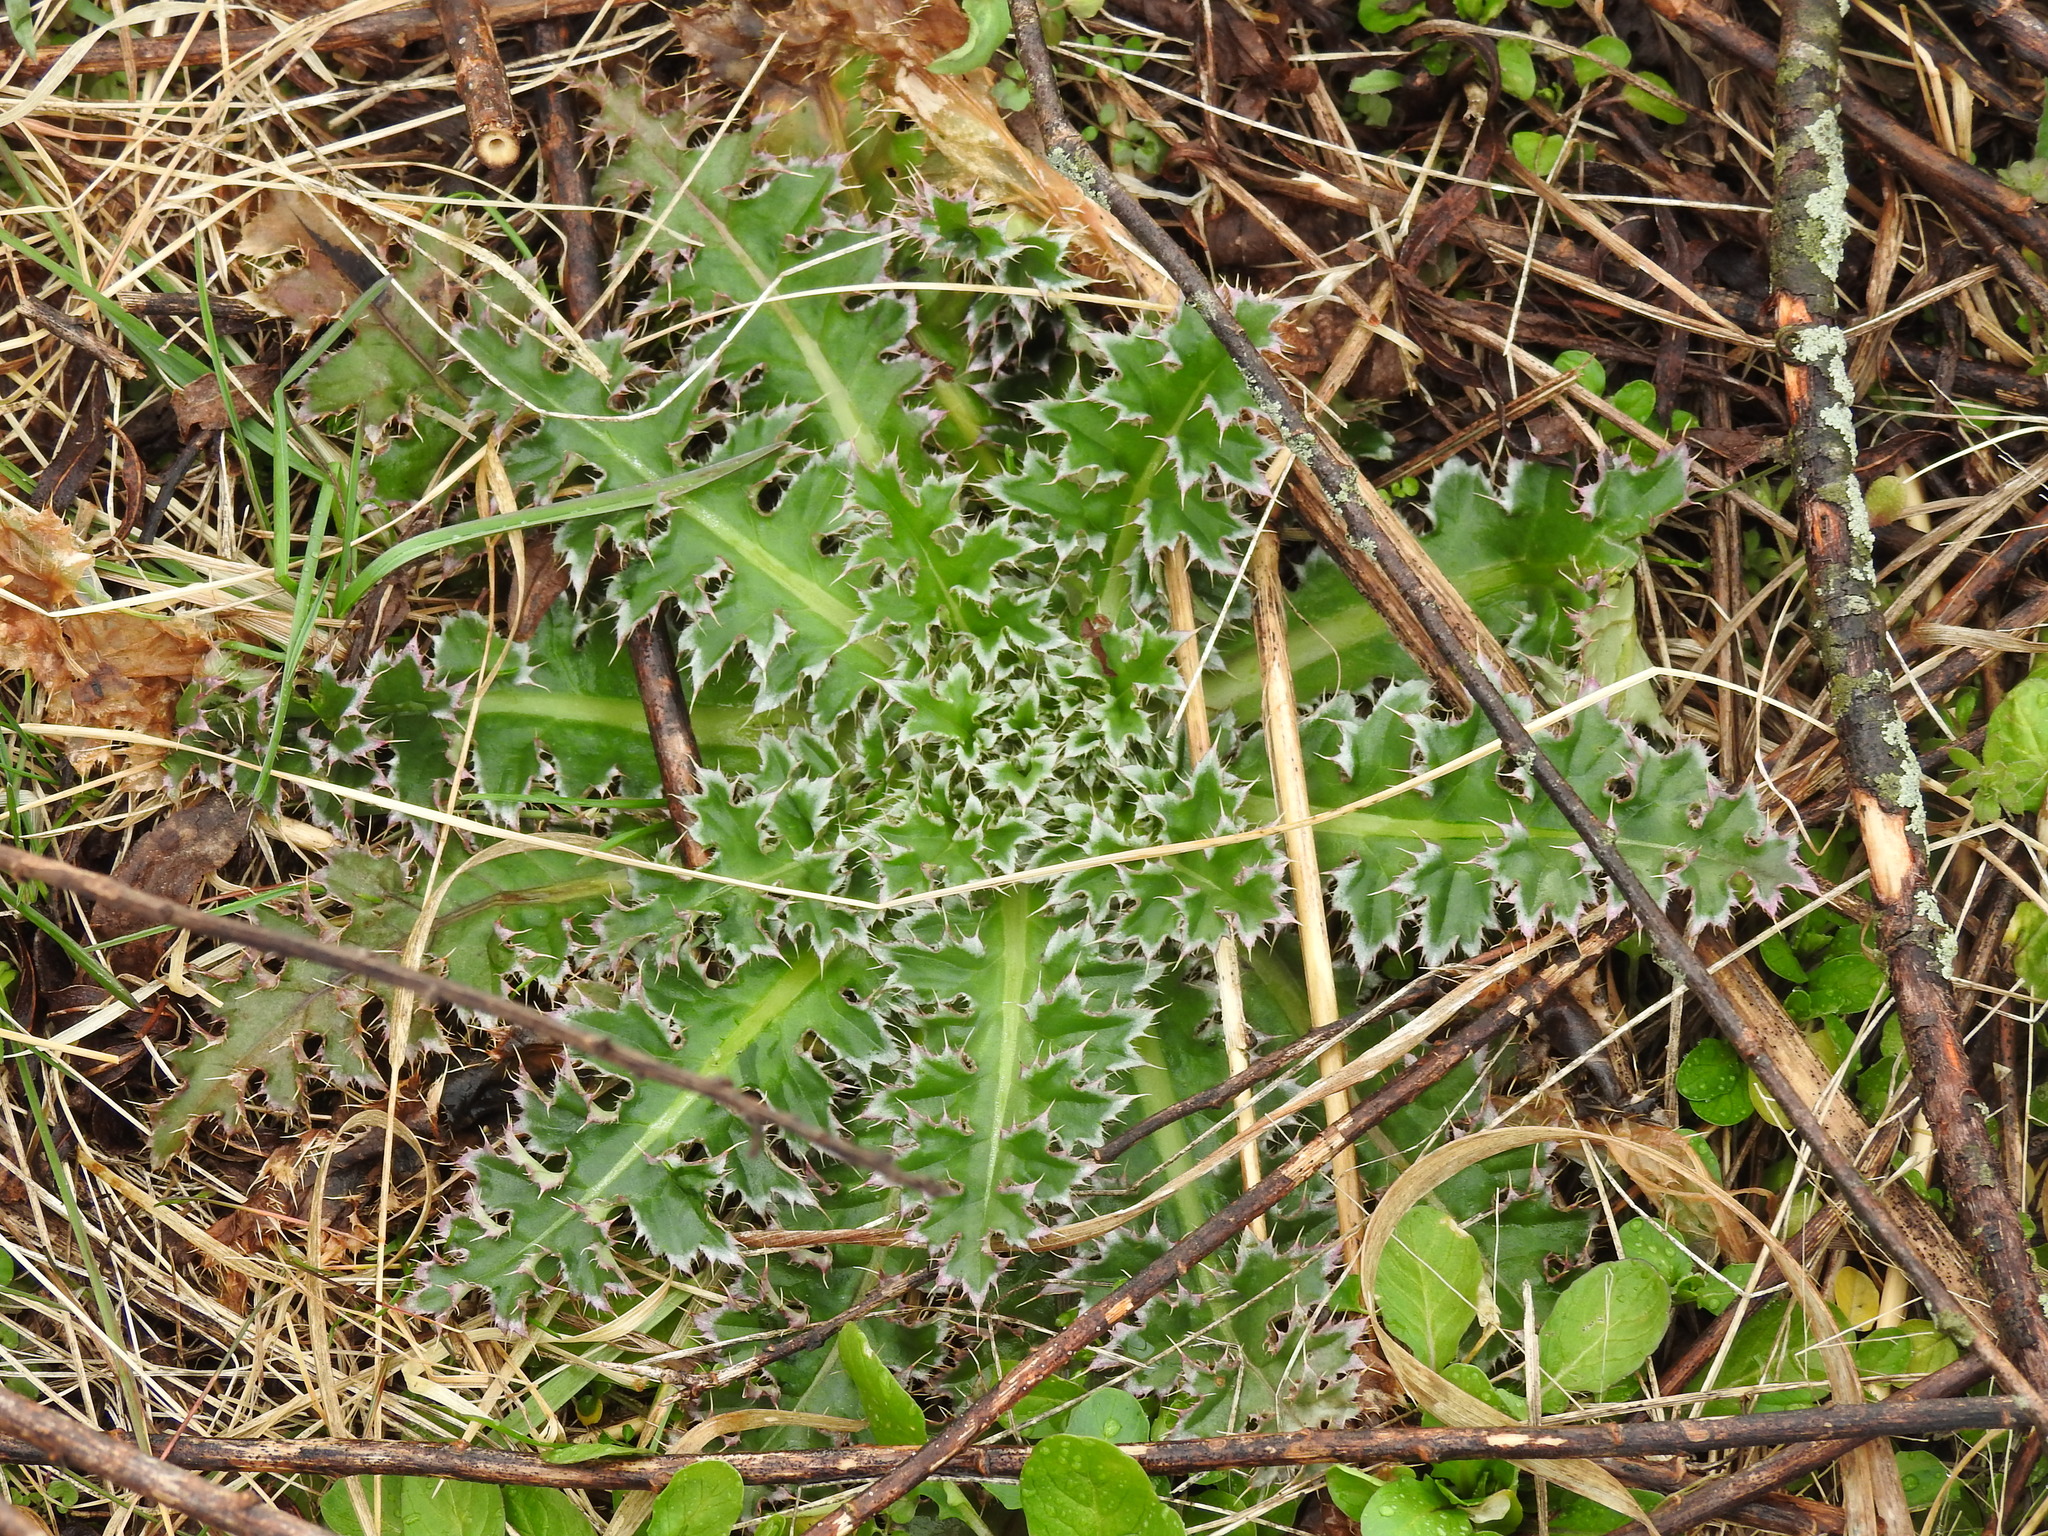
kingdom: Plantae
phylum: Tracheophyta
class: Magnoliopsida
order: Asterales
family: Asteraceae
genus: Carduus
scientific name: Carduus nutans
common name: Musk thistle
